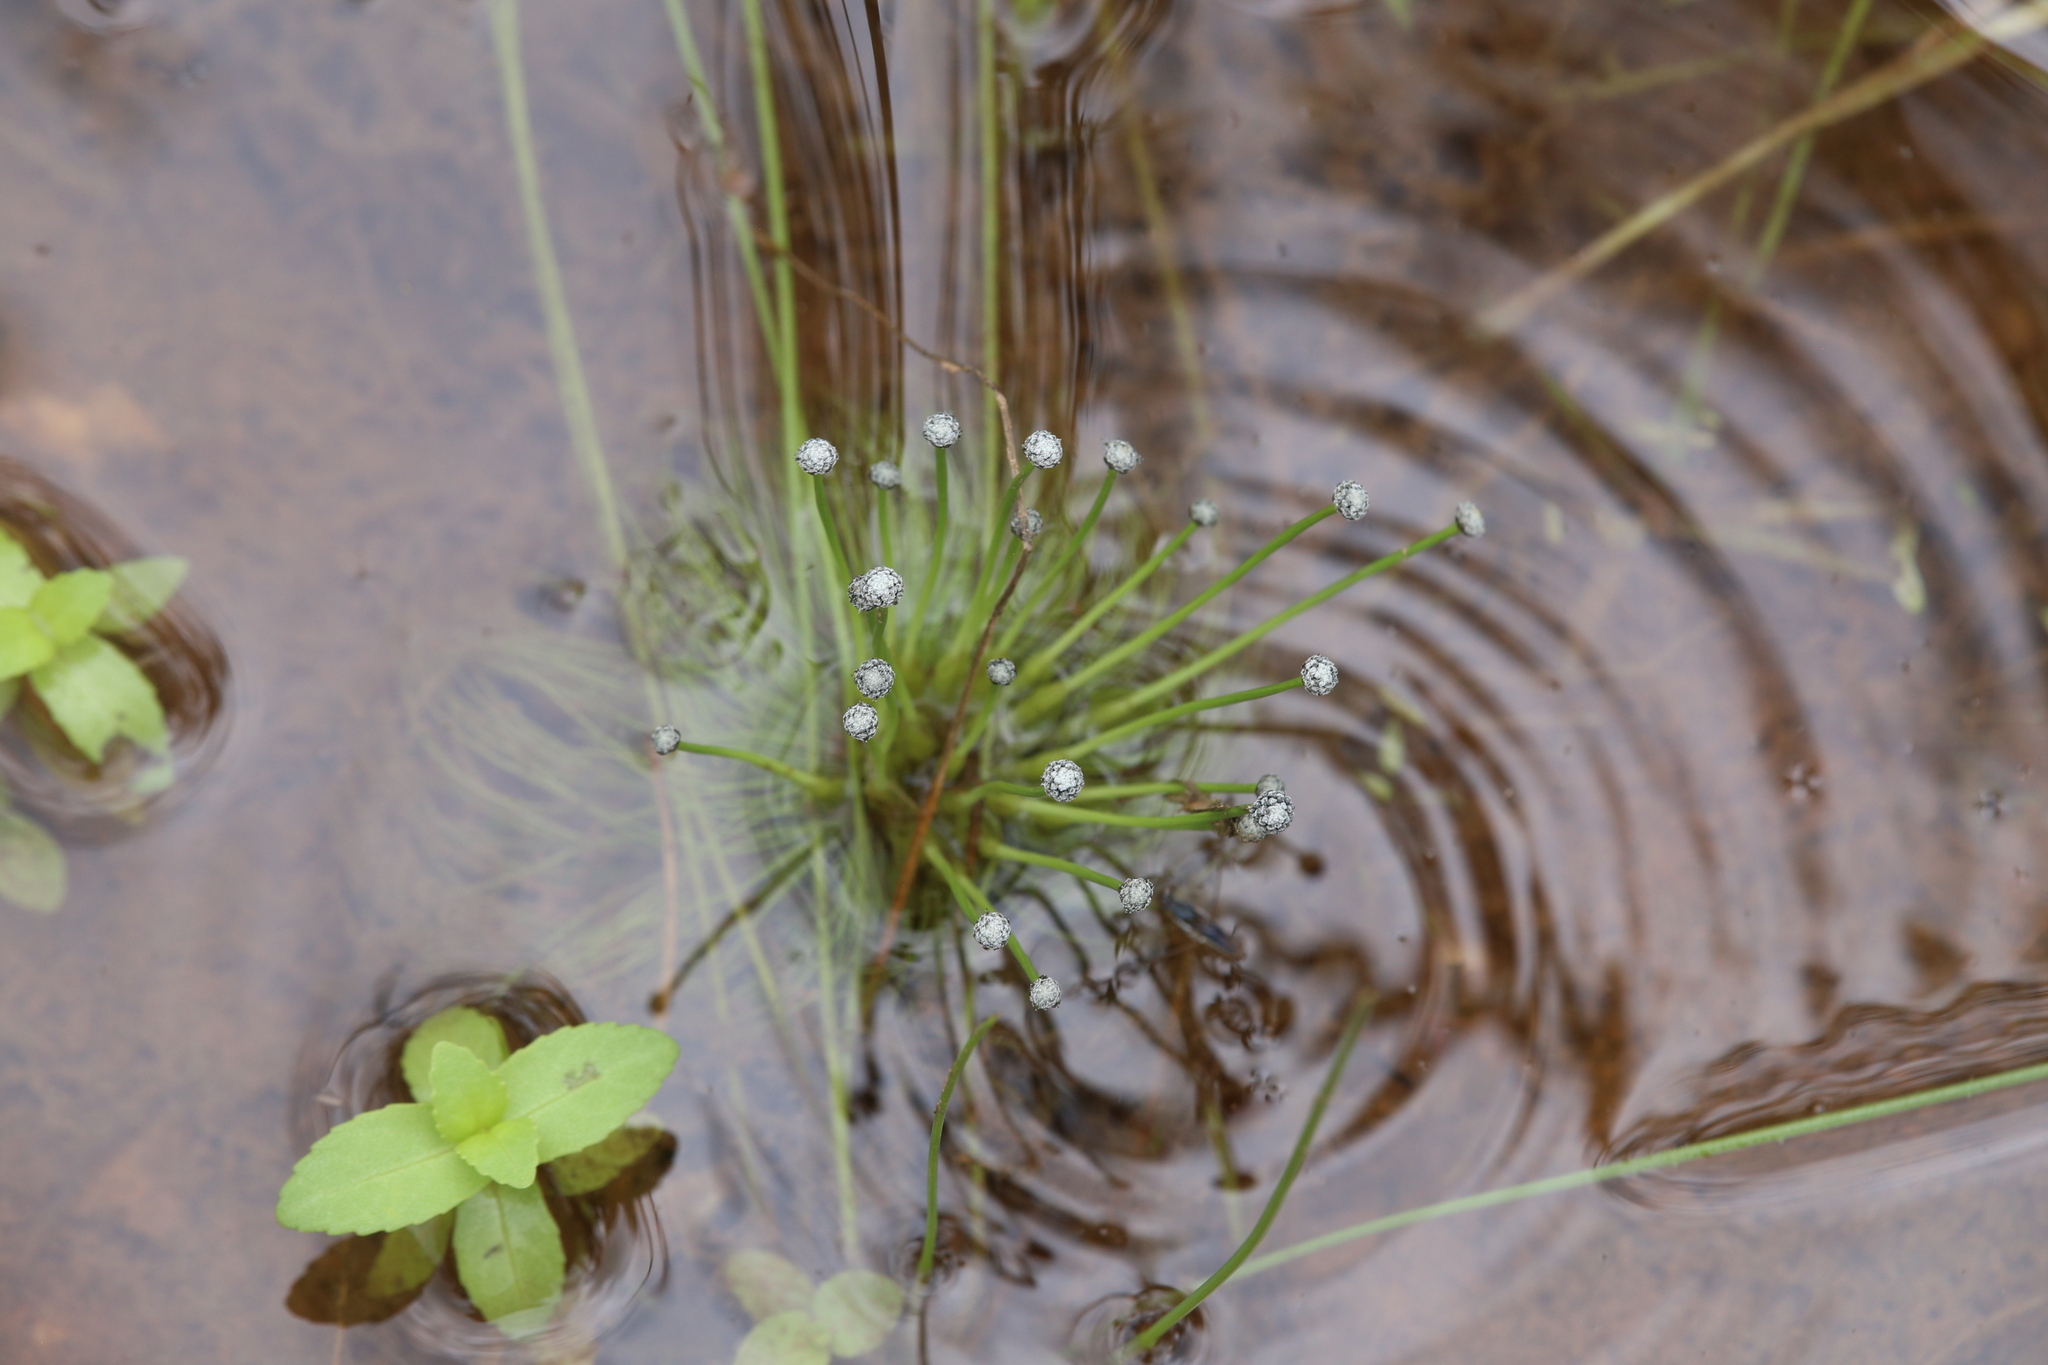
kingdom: Plantae
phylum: Tracheophyta
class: Liliopsida
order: Poales
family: Eriocaulaceae
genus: Eriocaulon
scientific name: Eriocaulon setaceum
